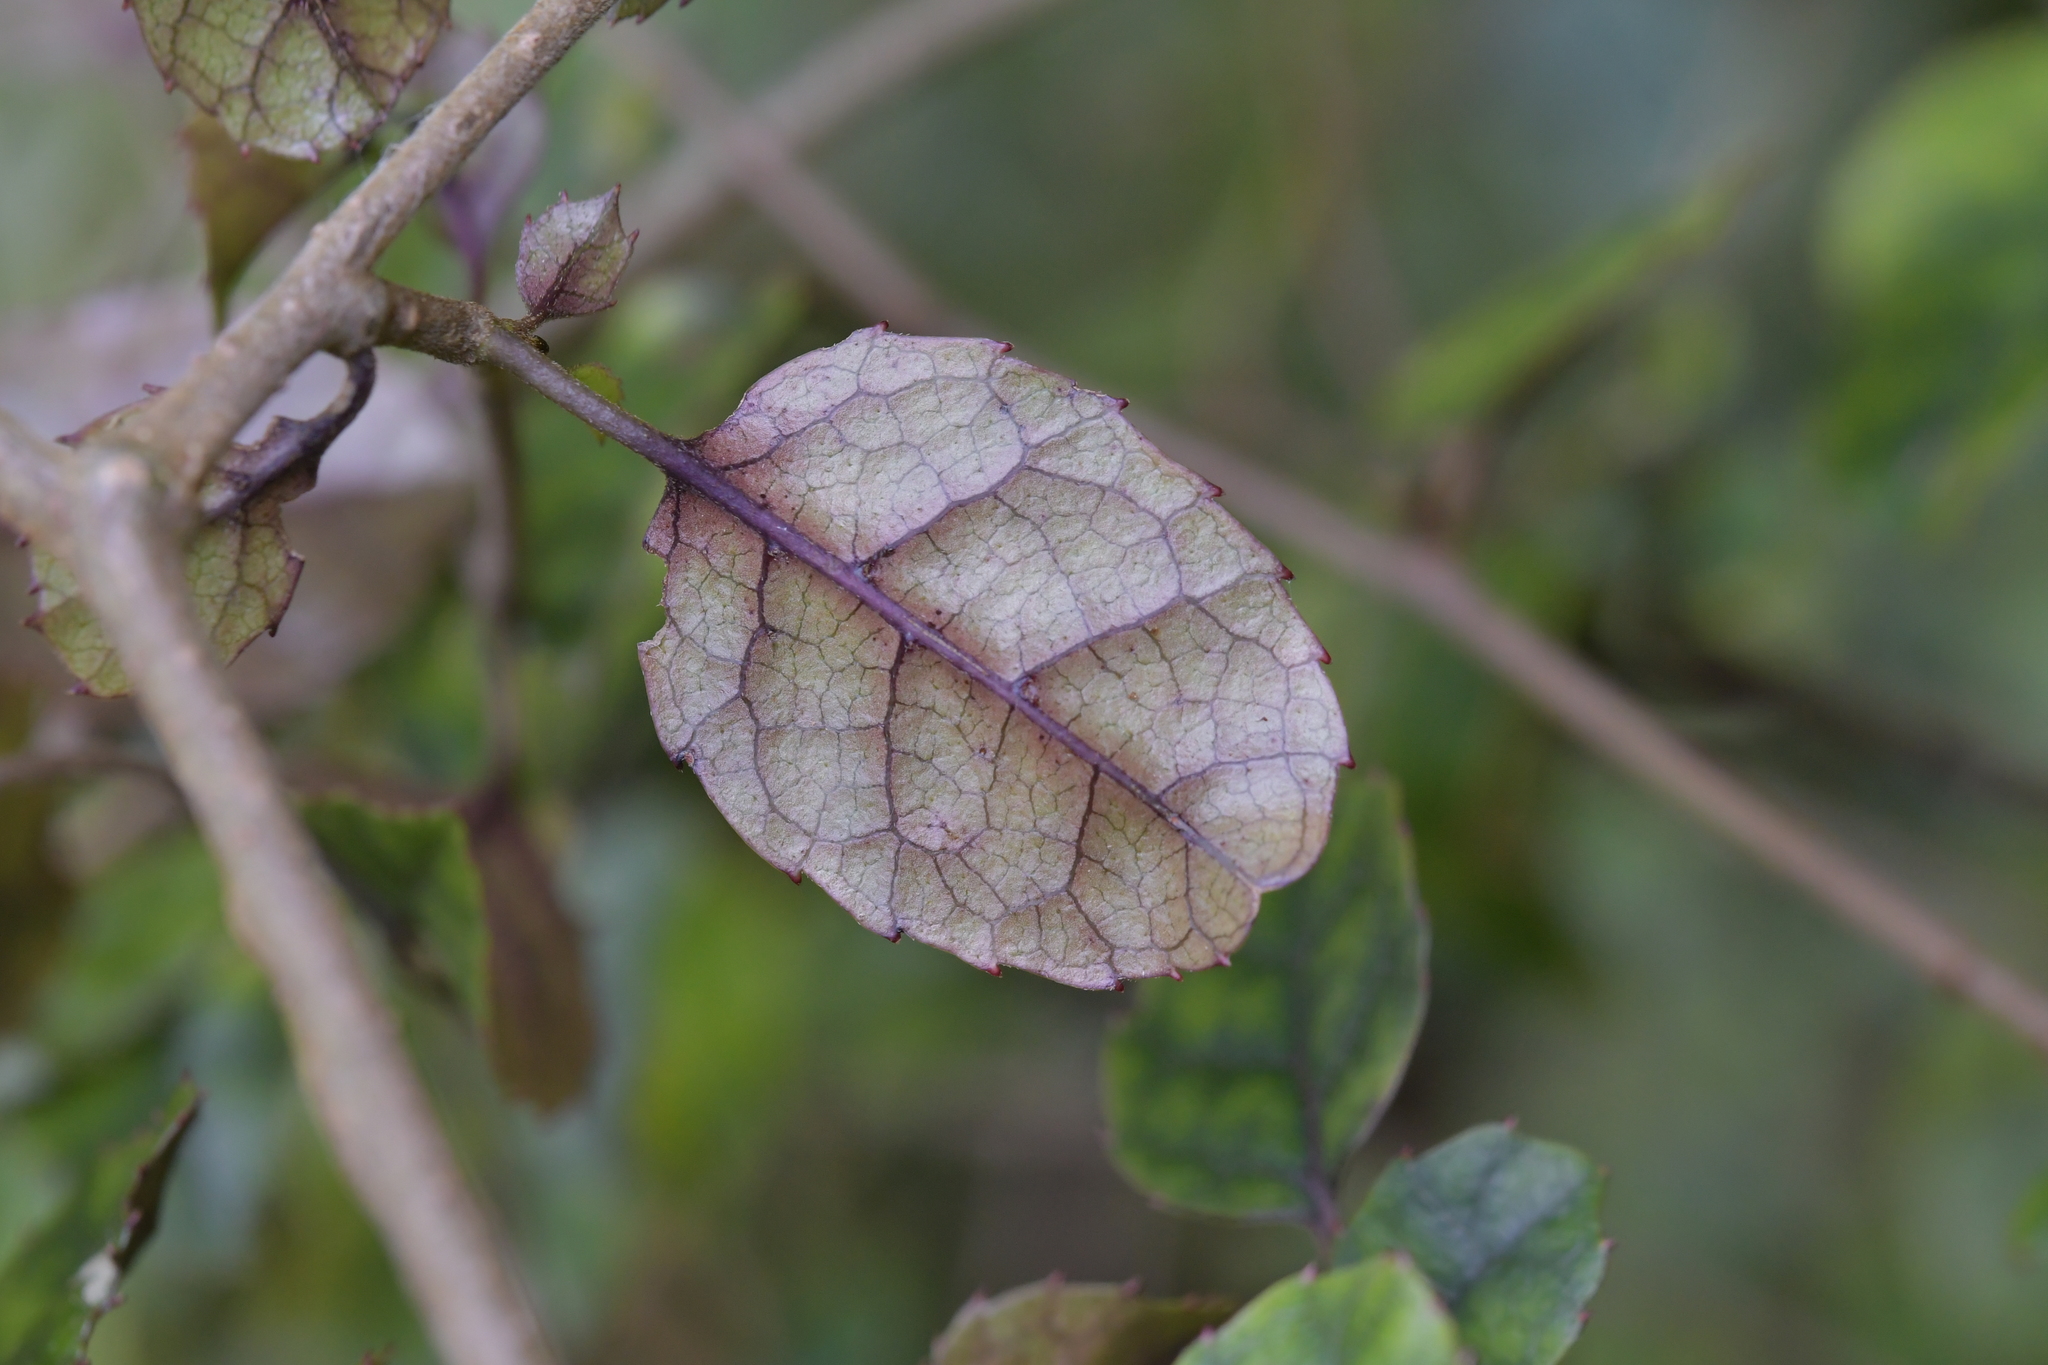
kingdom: Plantae
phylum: Tracheophyta
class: Magnoliopsida
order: Asterales
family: Rousseaceae
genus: Carpodetus
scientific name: Carpodetus serratus
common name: White mapau
